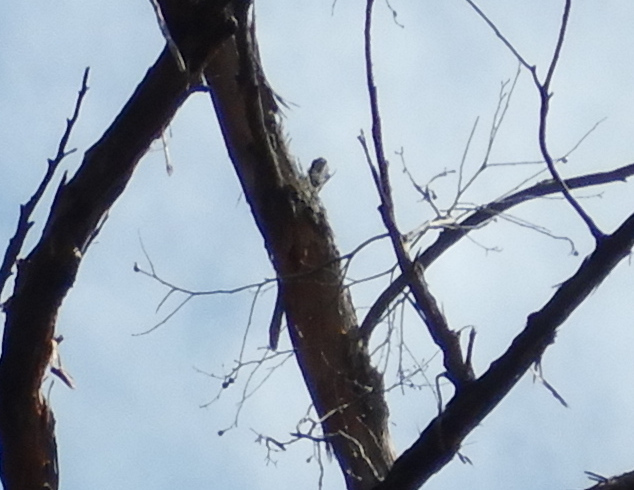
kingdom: Animalia
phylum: Chordata
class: Aves
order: Cuculiformes
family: Cuculidae
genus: Cacomantis
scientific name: Cacomantis flabelliformis
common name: Fan-tailed cuckoo
